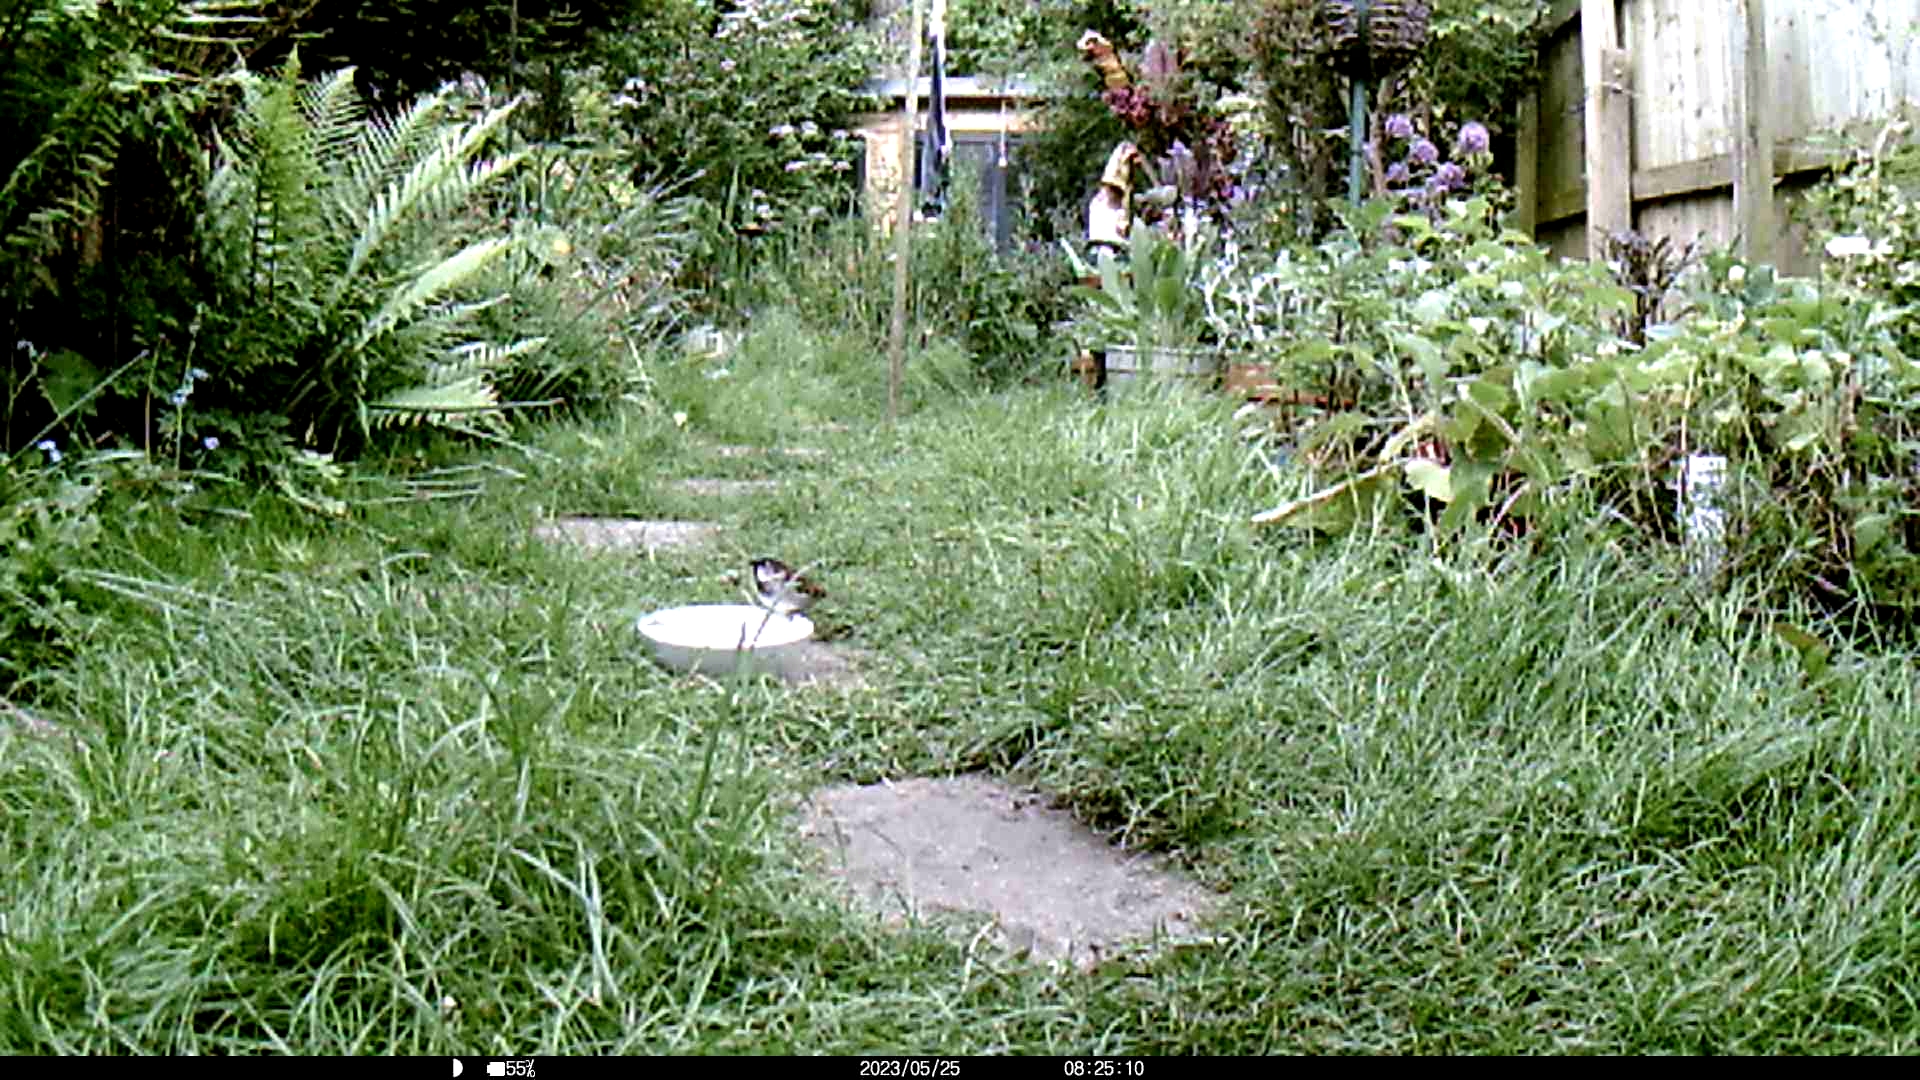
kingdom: Animalia
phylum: Chordata
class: Aves
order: Passeriformes
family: Passeridae
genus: Passer
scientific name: Passer domesticus
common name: House sparrow
